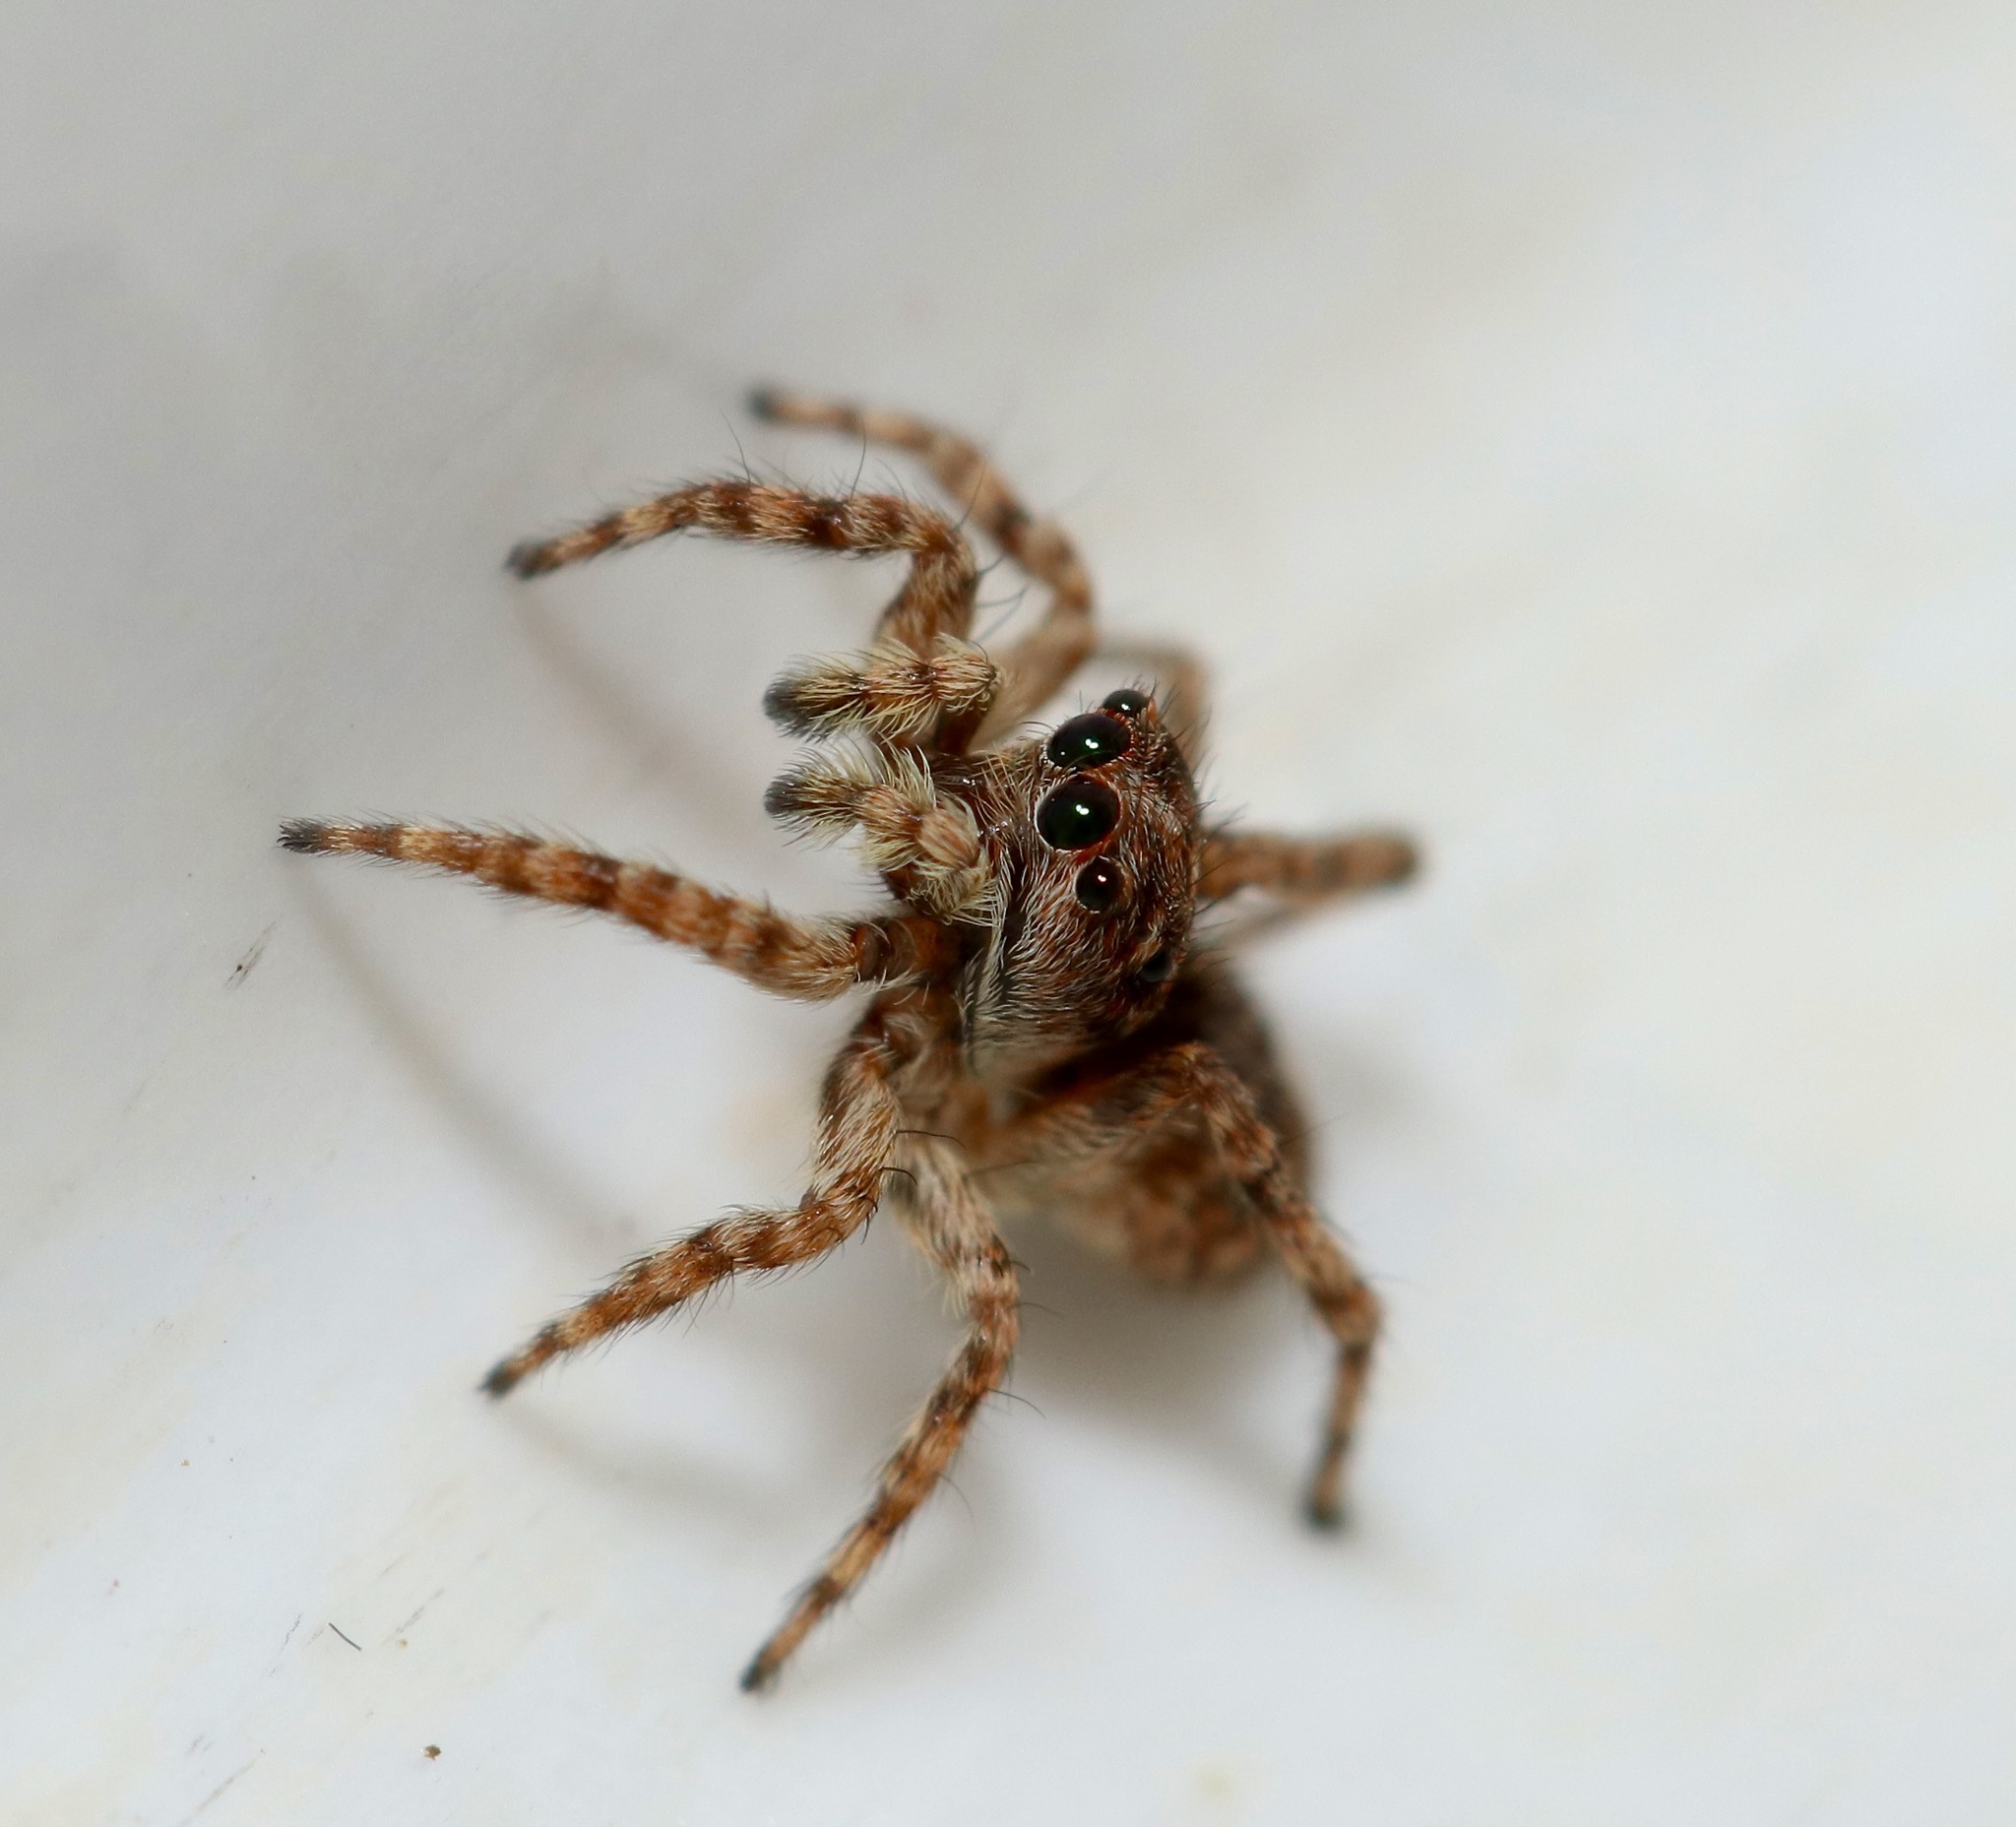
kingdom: Animalia
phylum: Arthropoda
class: Arachnida
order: Araneae
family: Salticidae
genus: Attulus
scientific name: Attulus fasciger
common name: Asiatic wall jumping spider
